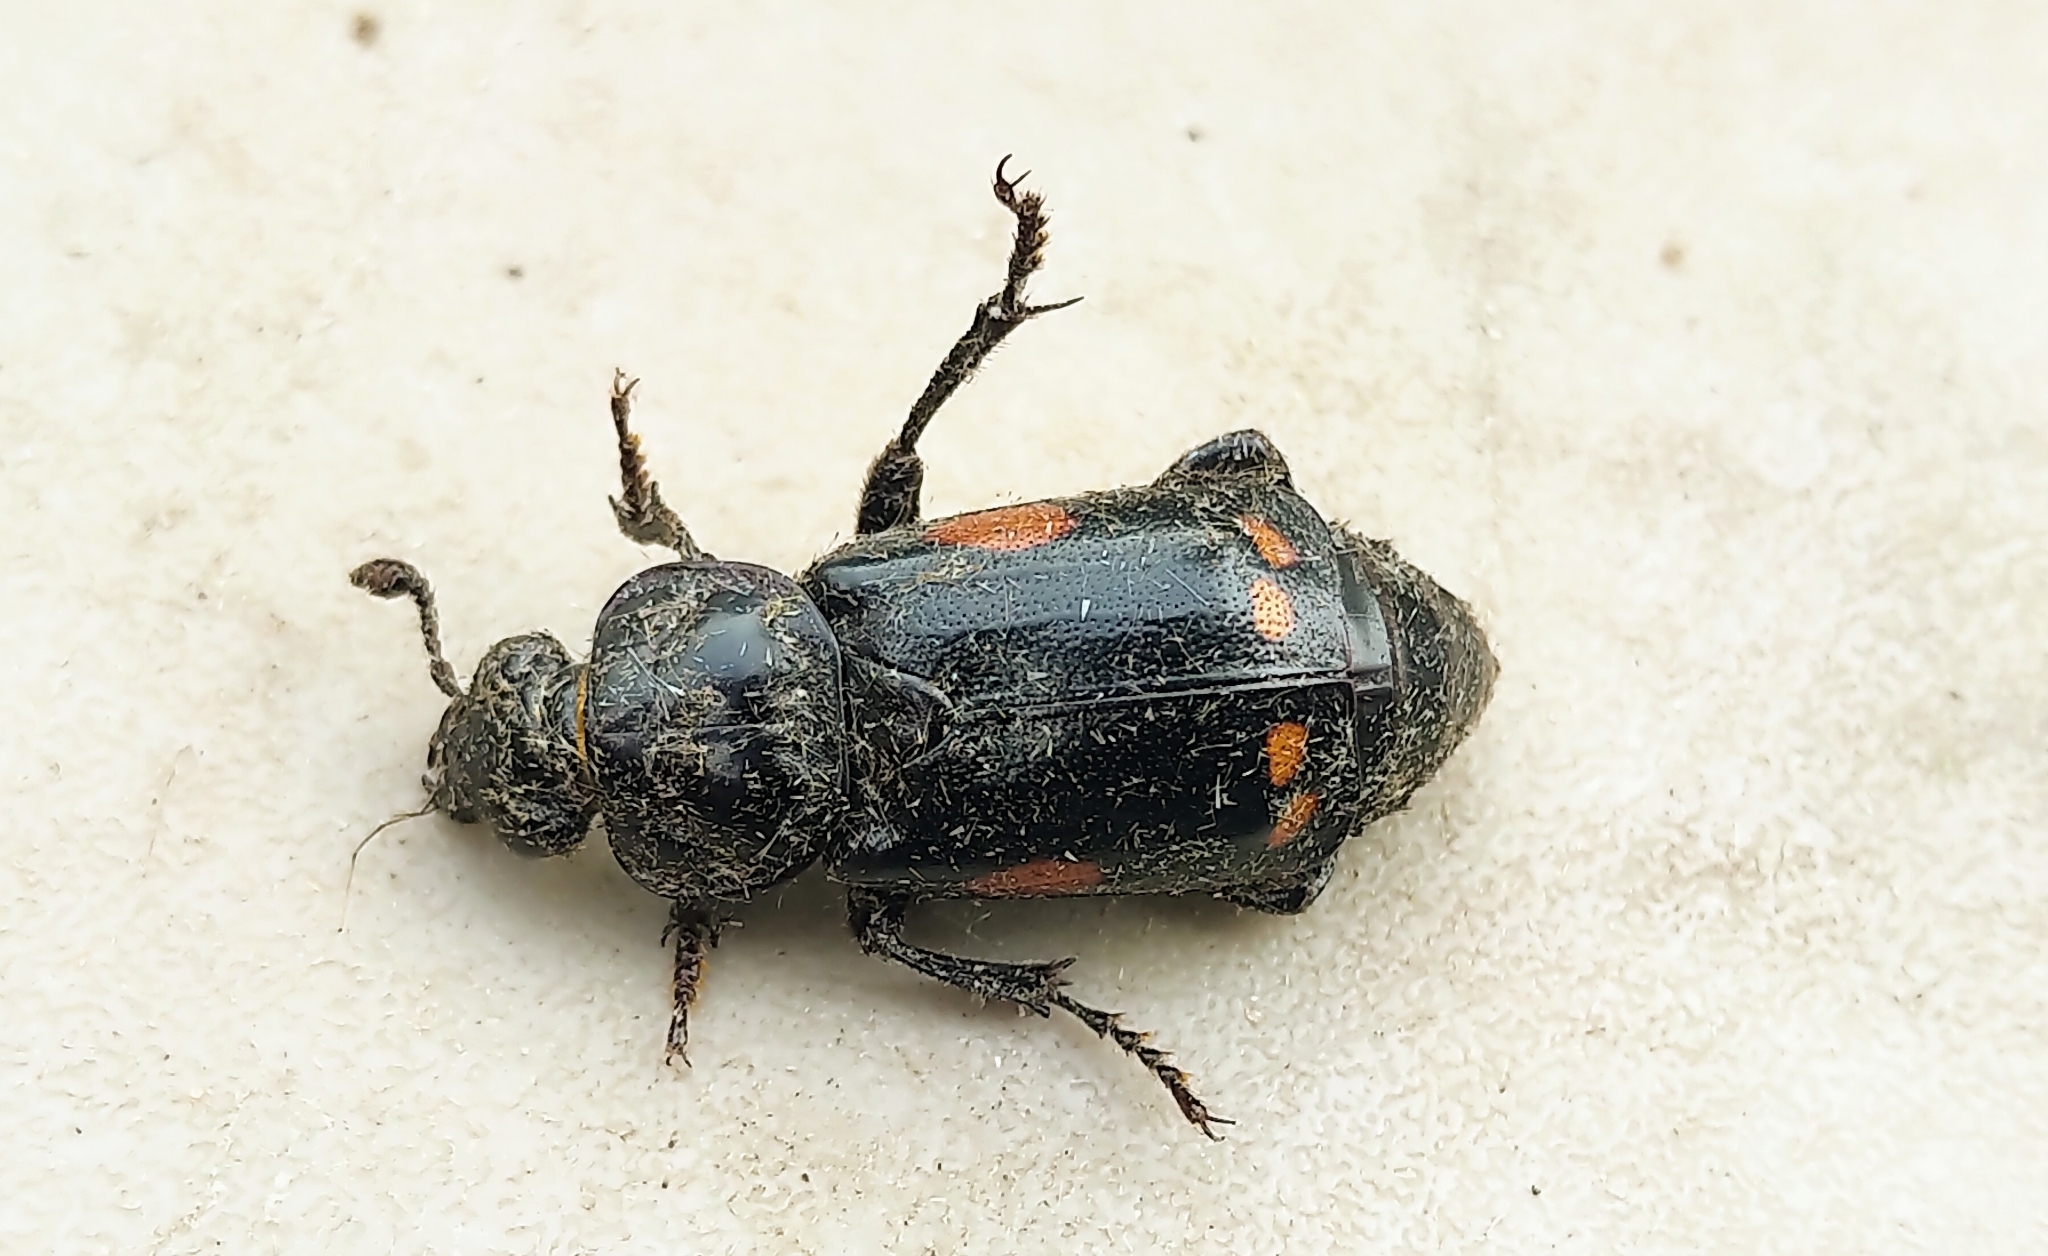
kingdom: Animalia
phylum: Arthropoda
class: Insecta
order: Coleoptera
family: Staphylinidae
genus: Nicrophorus
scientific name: Nicrophorus pustulatus
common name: Pustulated carrion beetle
